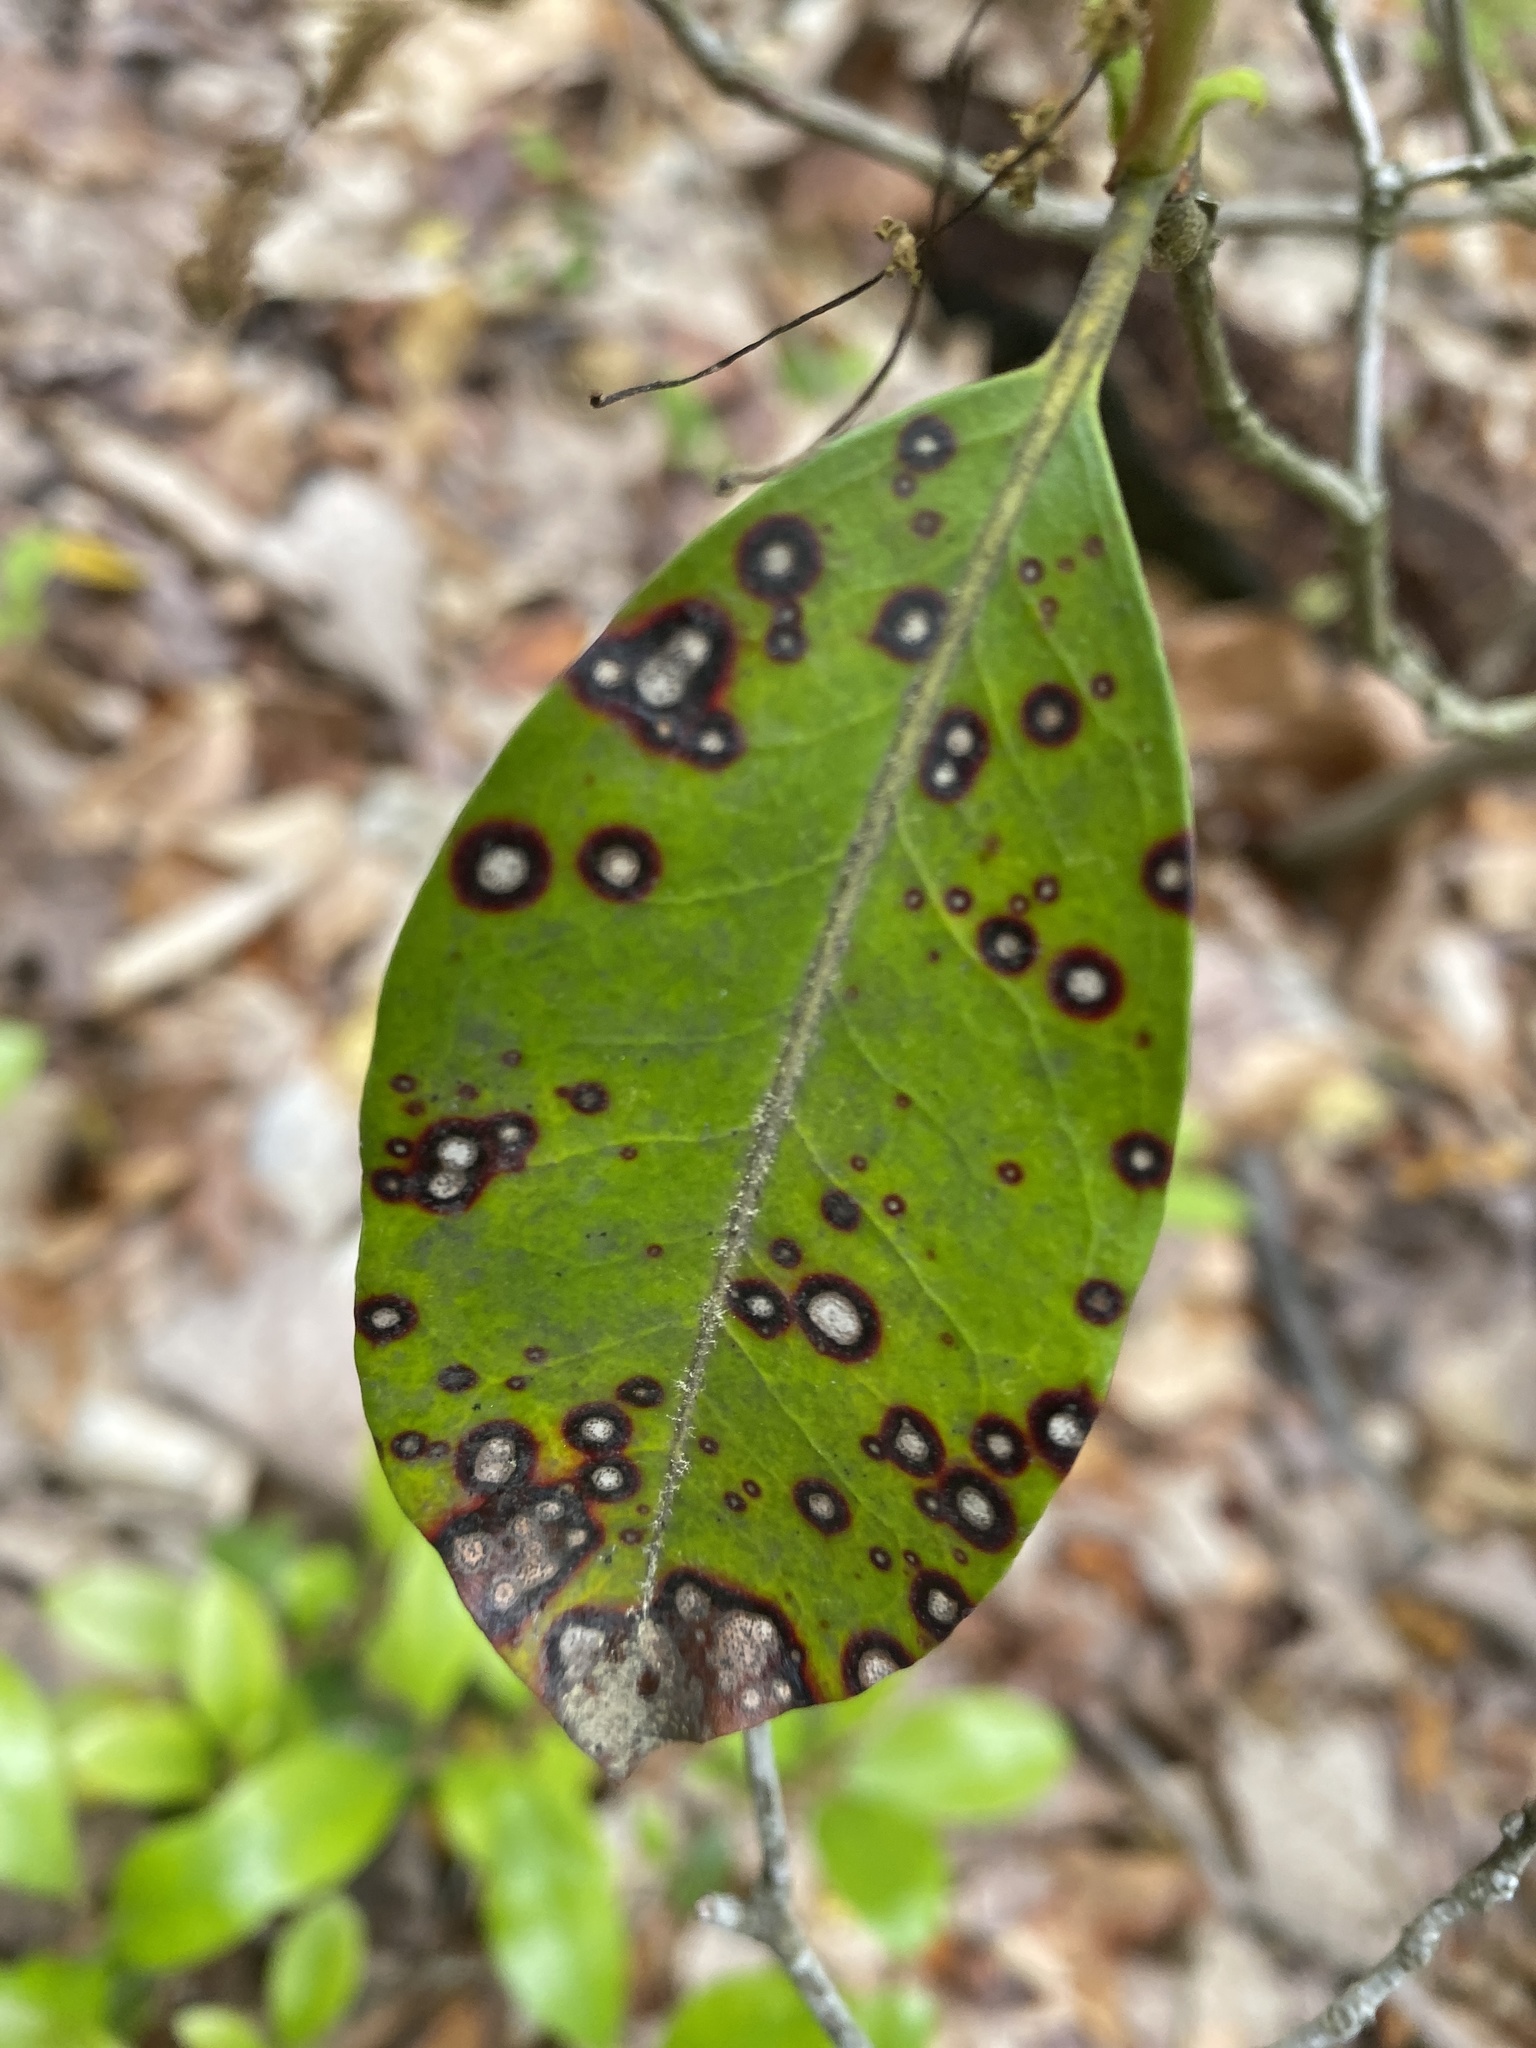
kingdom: Fungi
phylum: Ascomycota
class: Dothideomycetes
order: Mycosphaerellales
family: Mycosphaerellaceae
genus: Mycosphaerella
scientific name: Mycosphaerella colorata
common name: Mountain laurel leaf spot
